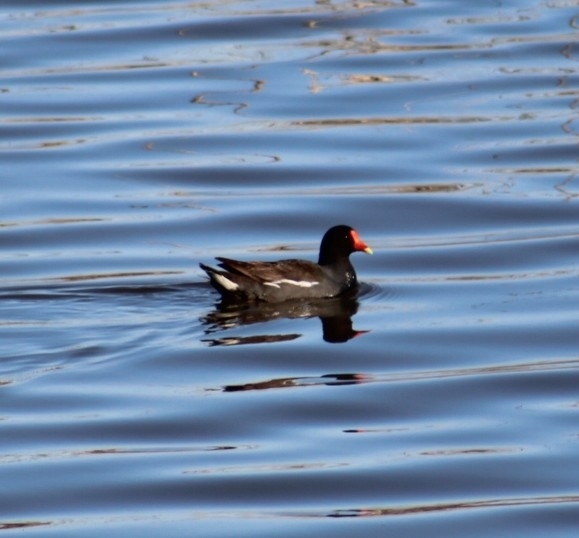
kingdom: Animalia
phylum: Chordata
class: Aves
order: Gruiformes
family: Rallidae
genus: Gallinula
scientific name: Gallinula chloropus
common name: Common moorhen
